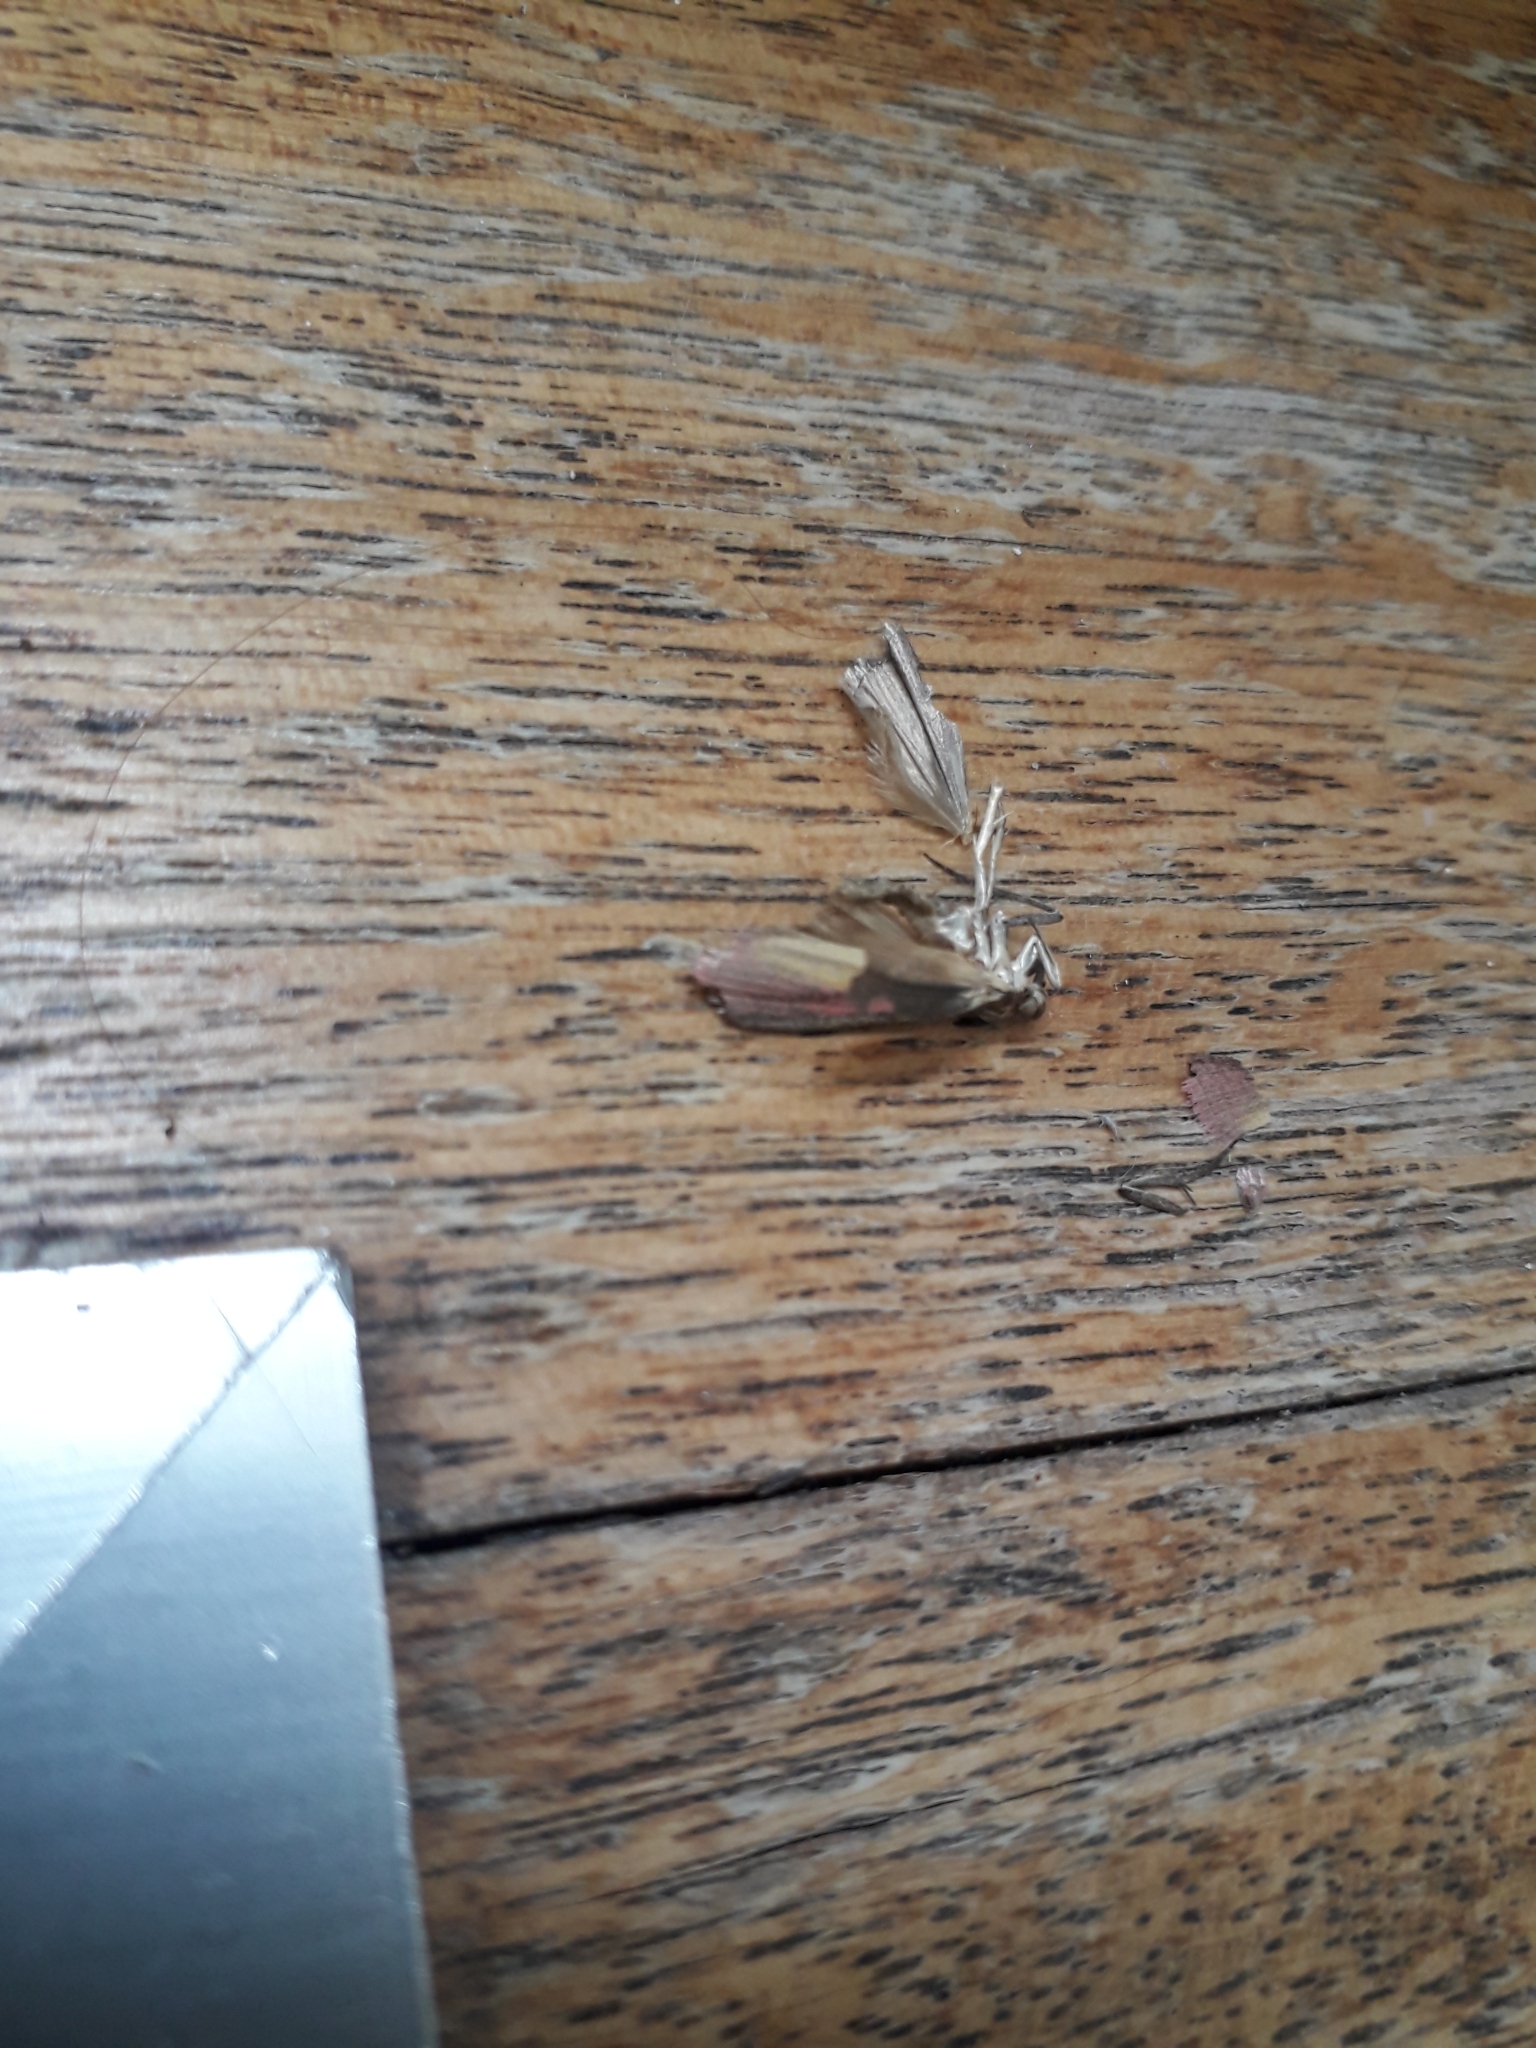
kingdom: Animalia
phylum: Arthropoda
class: Insecta
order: Lepidoptera
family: Pyralidae
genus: Oncocera
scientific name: Oncocera semirubella
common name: Rosy-striped knot-horn
